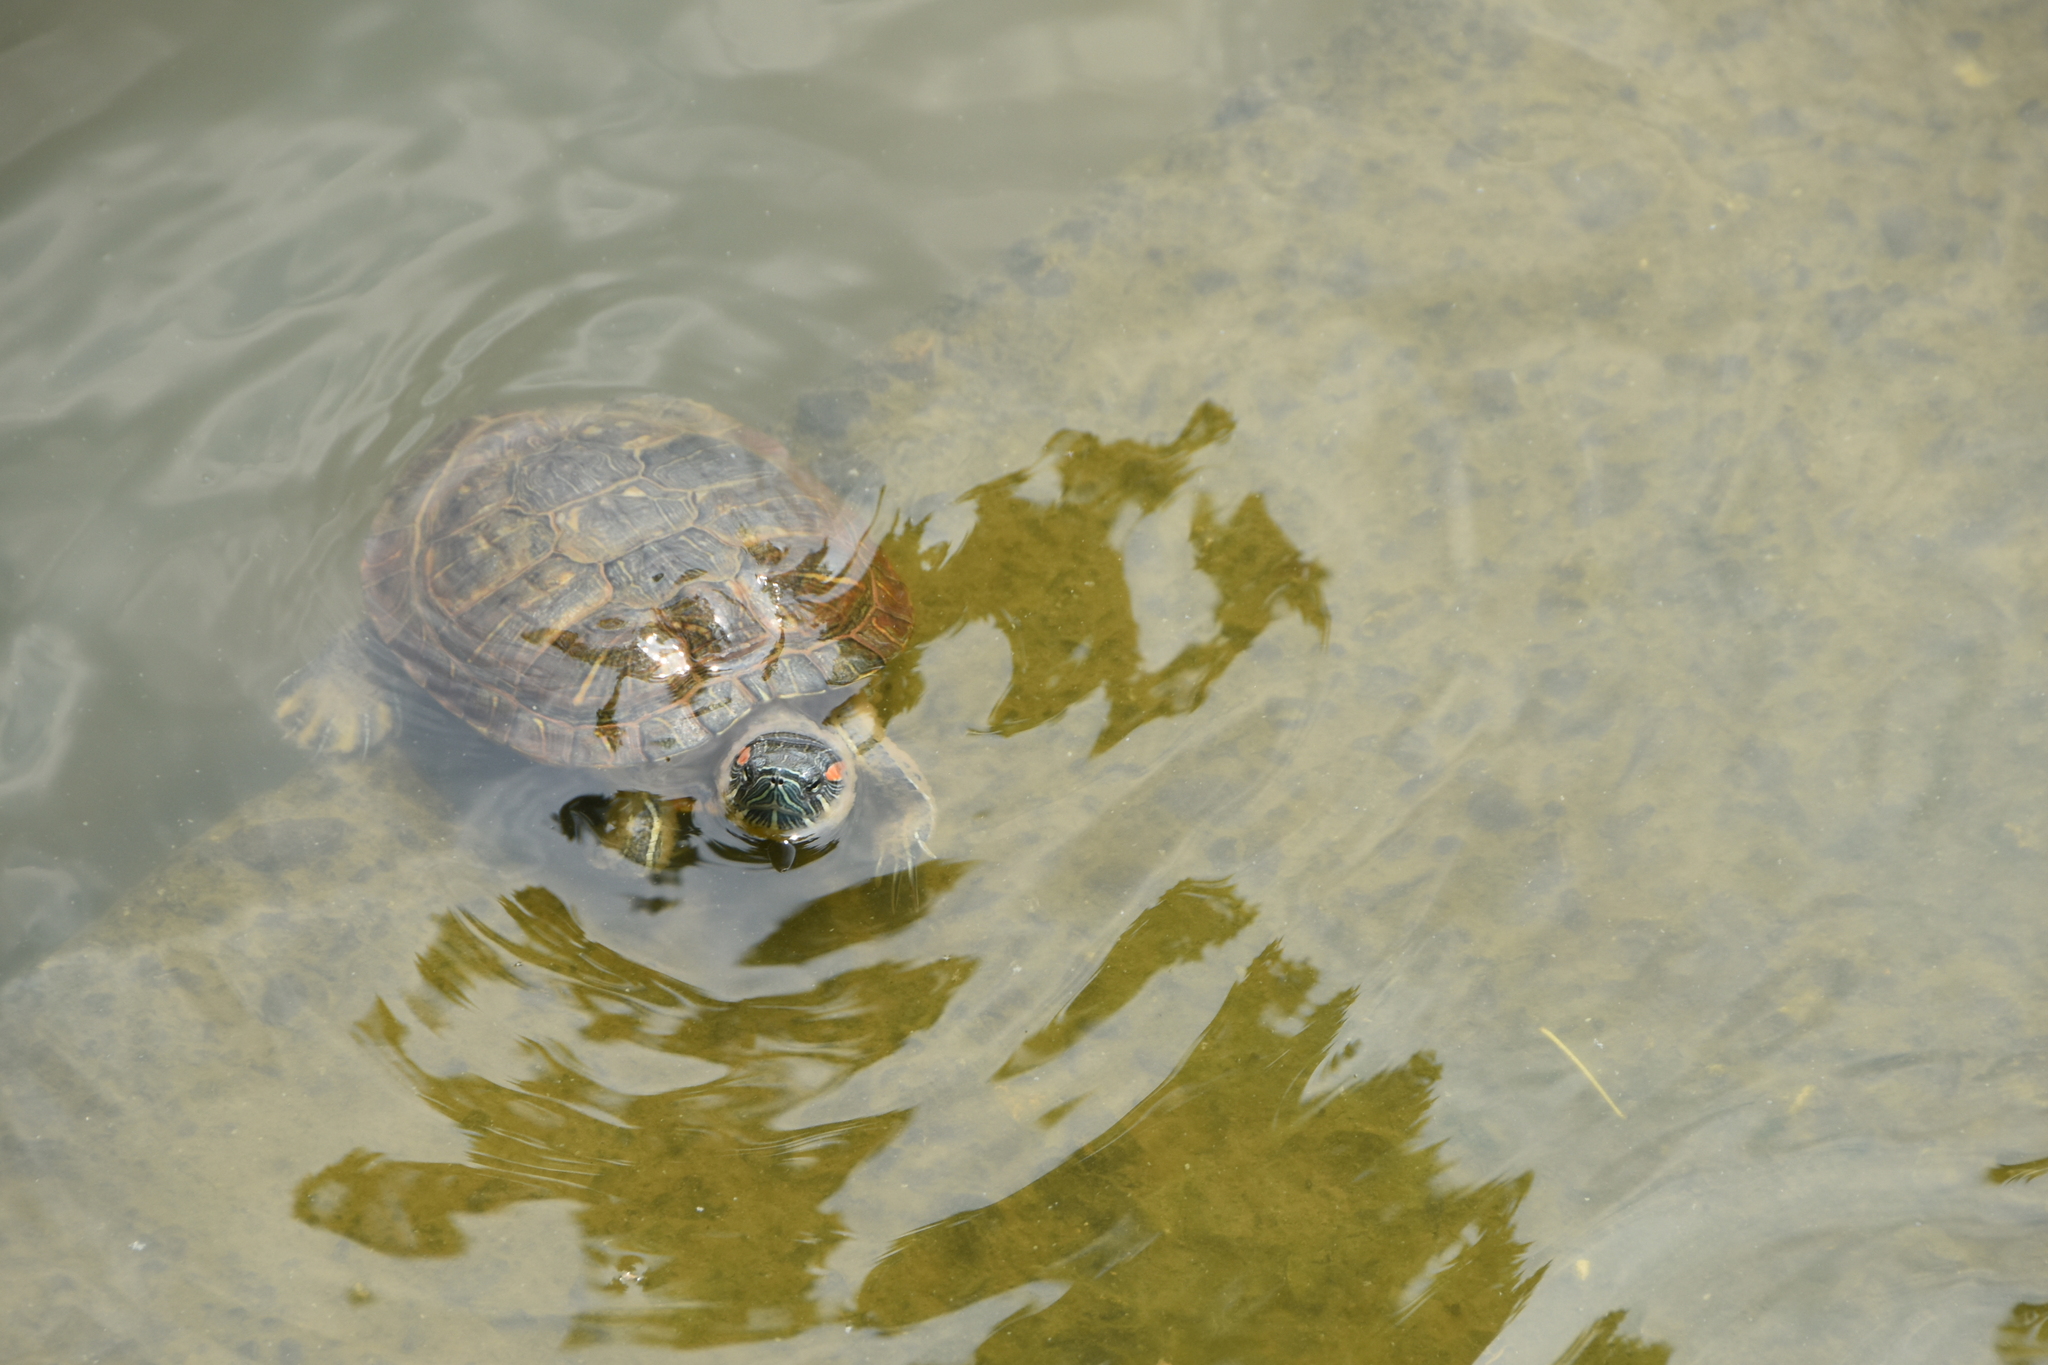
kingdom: Animalia
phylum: Chordata
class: Testudines
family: Emydidae
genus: Trachemys
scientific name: Trachemys scripta
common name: Slider
